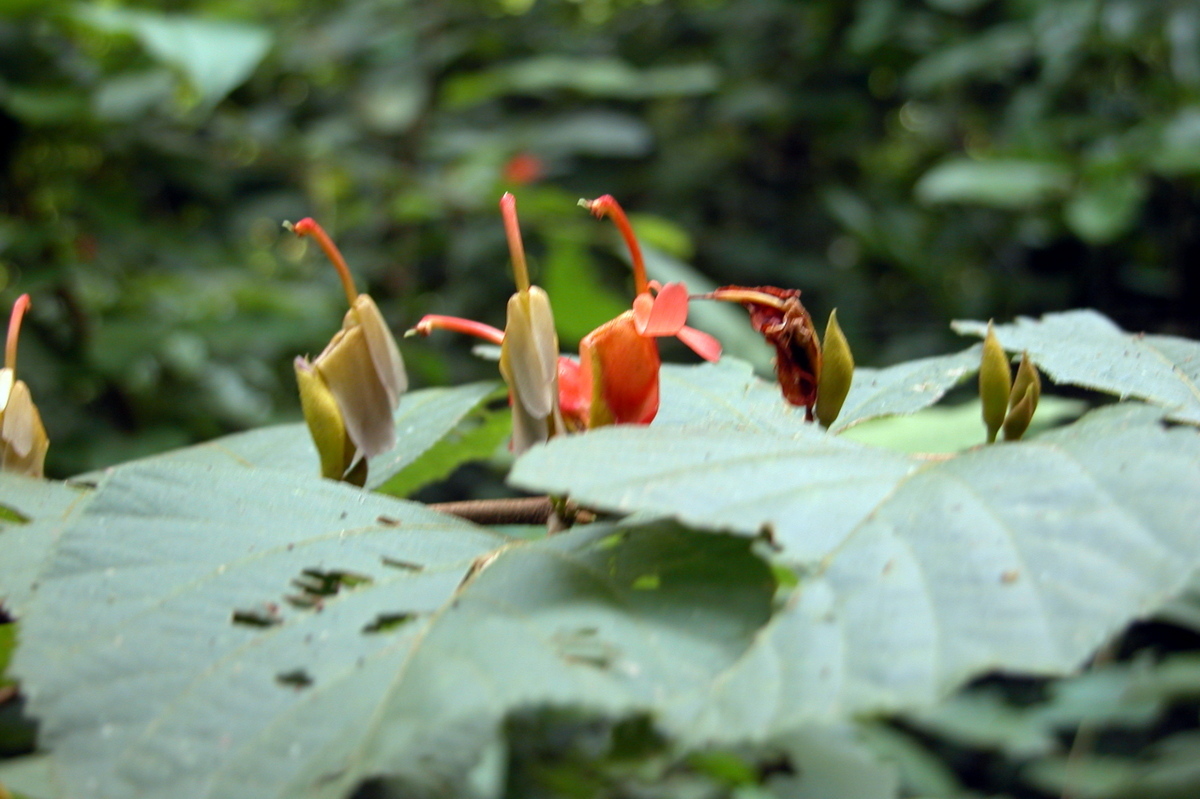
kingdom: Plantae
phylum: Tracheophyta
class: Magnoliopsida
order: Malvales
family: Malvaceae
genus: Helicteres
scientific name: Helicteres isora
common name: East indian screwtree
